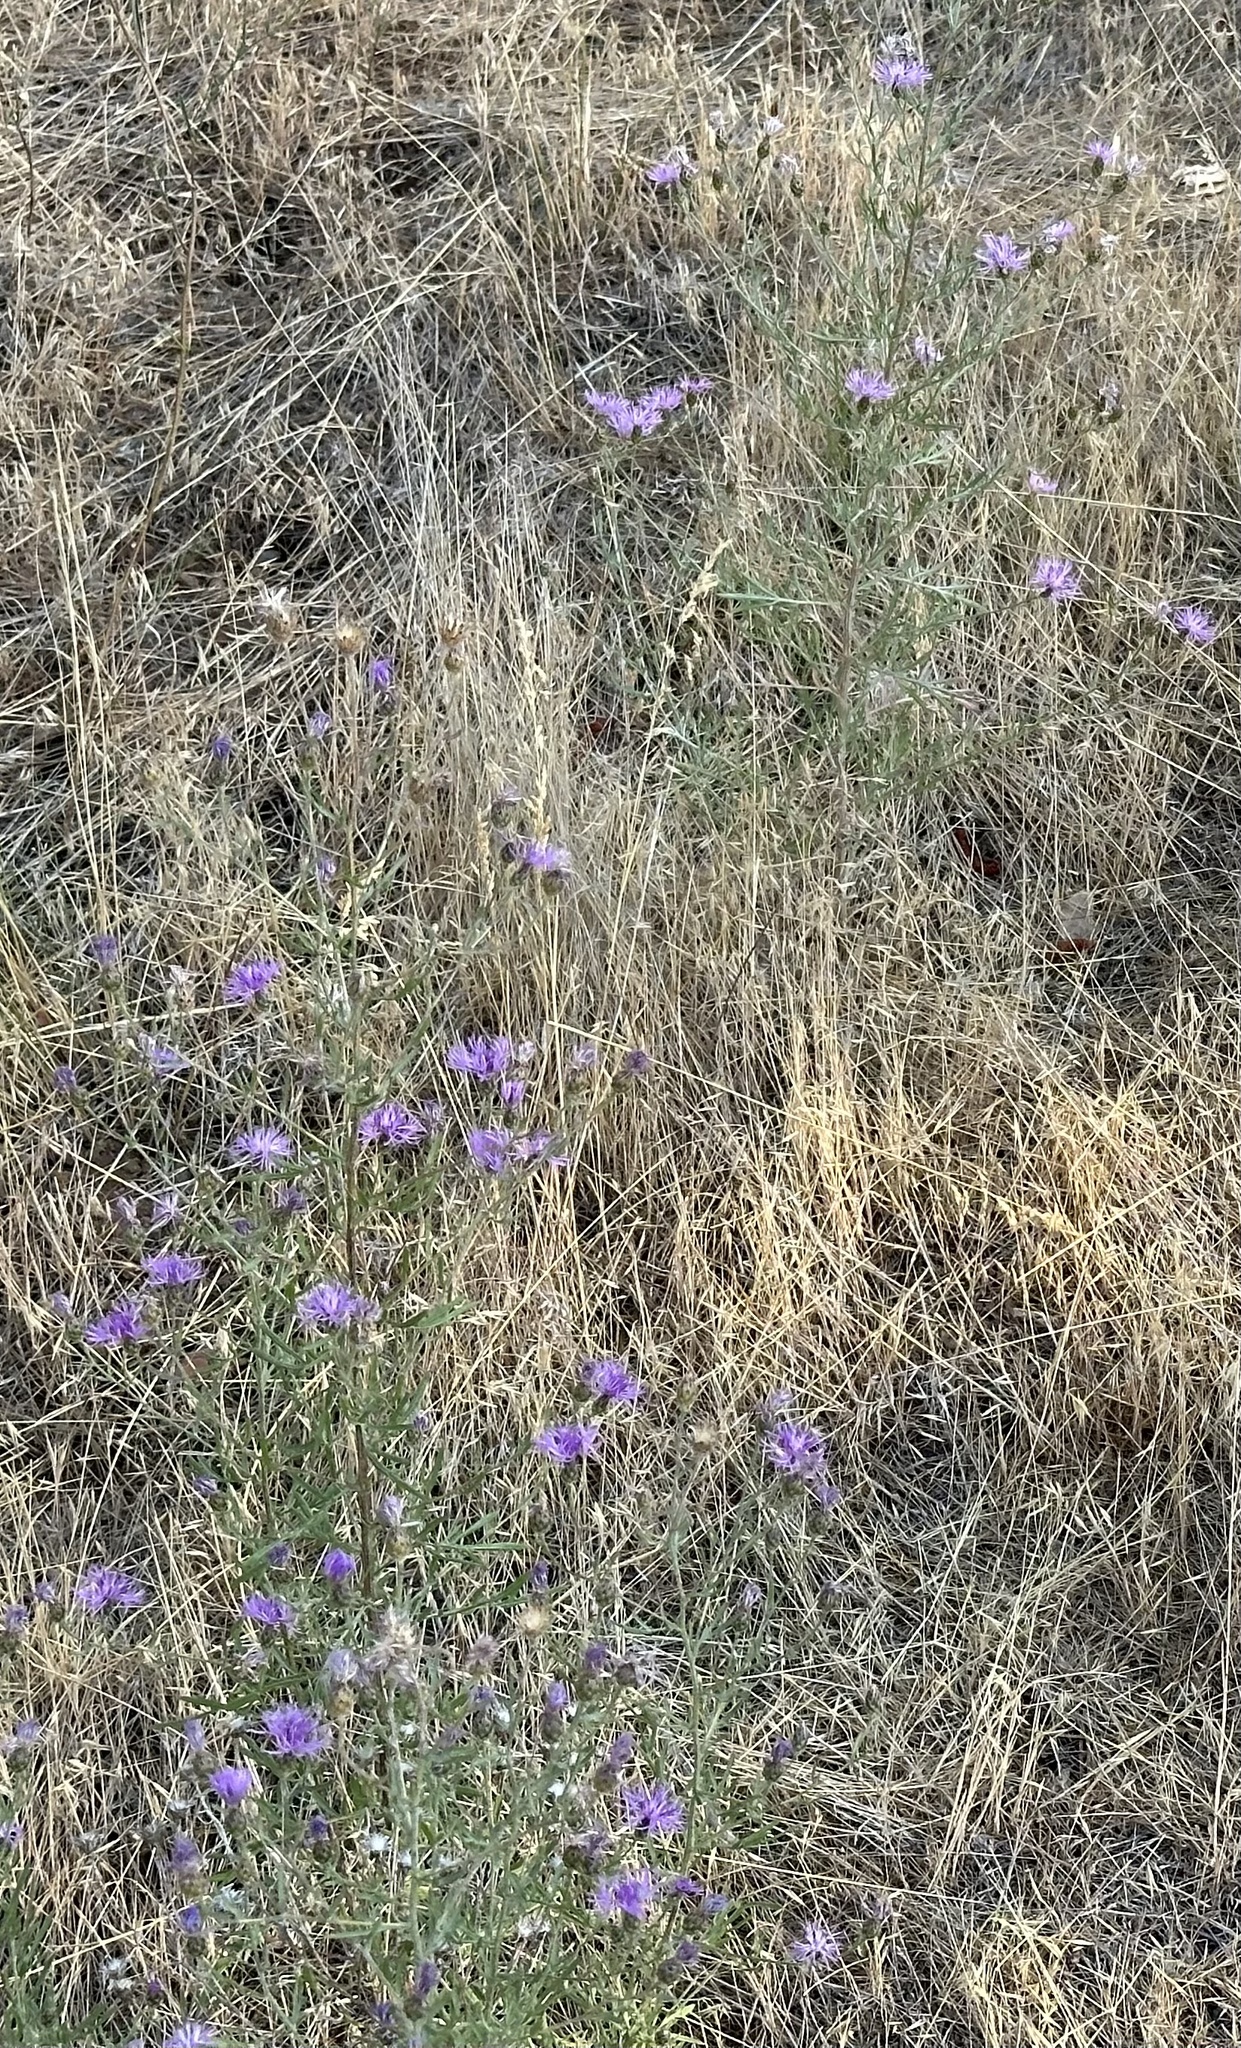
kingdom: Plantae
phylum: Tracheophyta
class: Magnoliopsida
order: Asterales
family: Asteraceae
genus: Centaurea
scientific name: Centaurea stoebe
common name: Spotted knapweed
